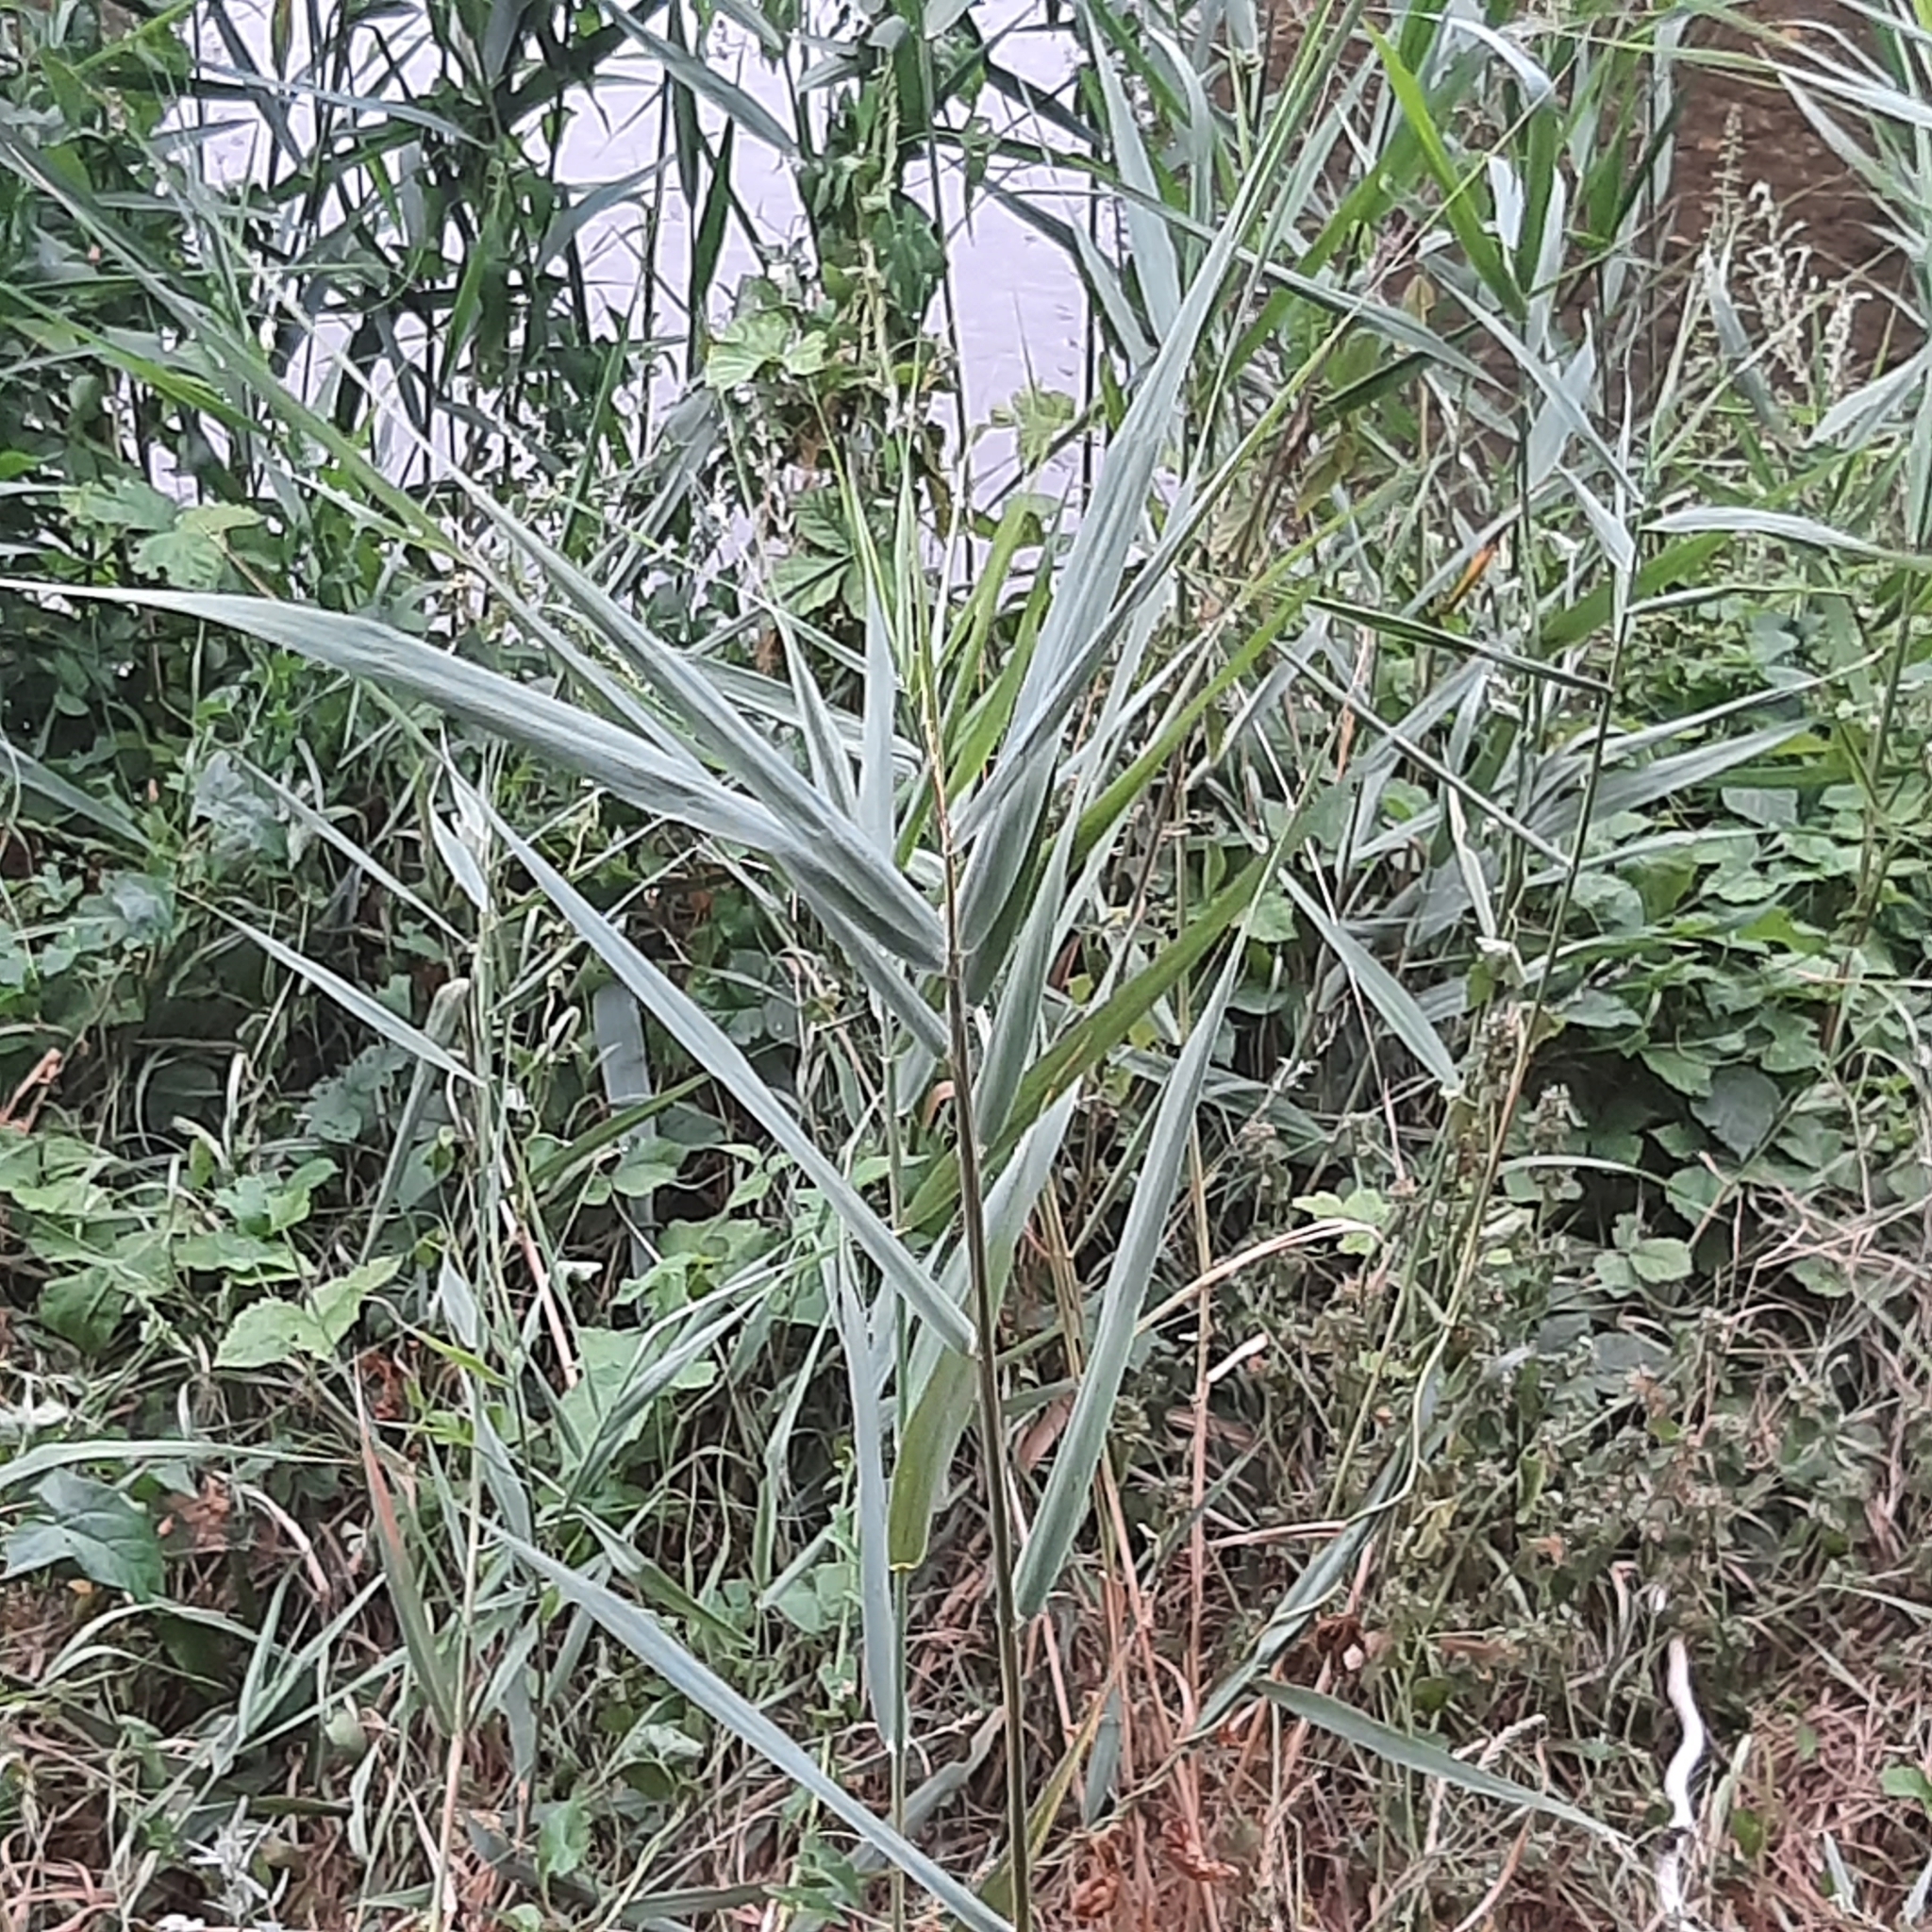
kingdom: Plantae
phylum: Tracheophyta
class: Liliopsida
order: Poales
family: Poaceae
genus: Phragmites
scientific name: Phragmites
